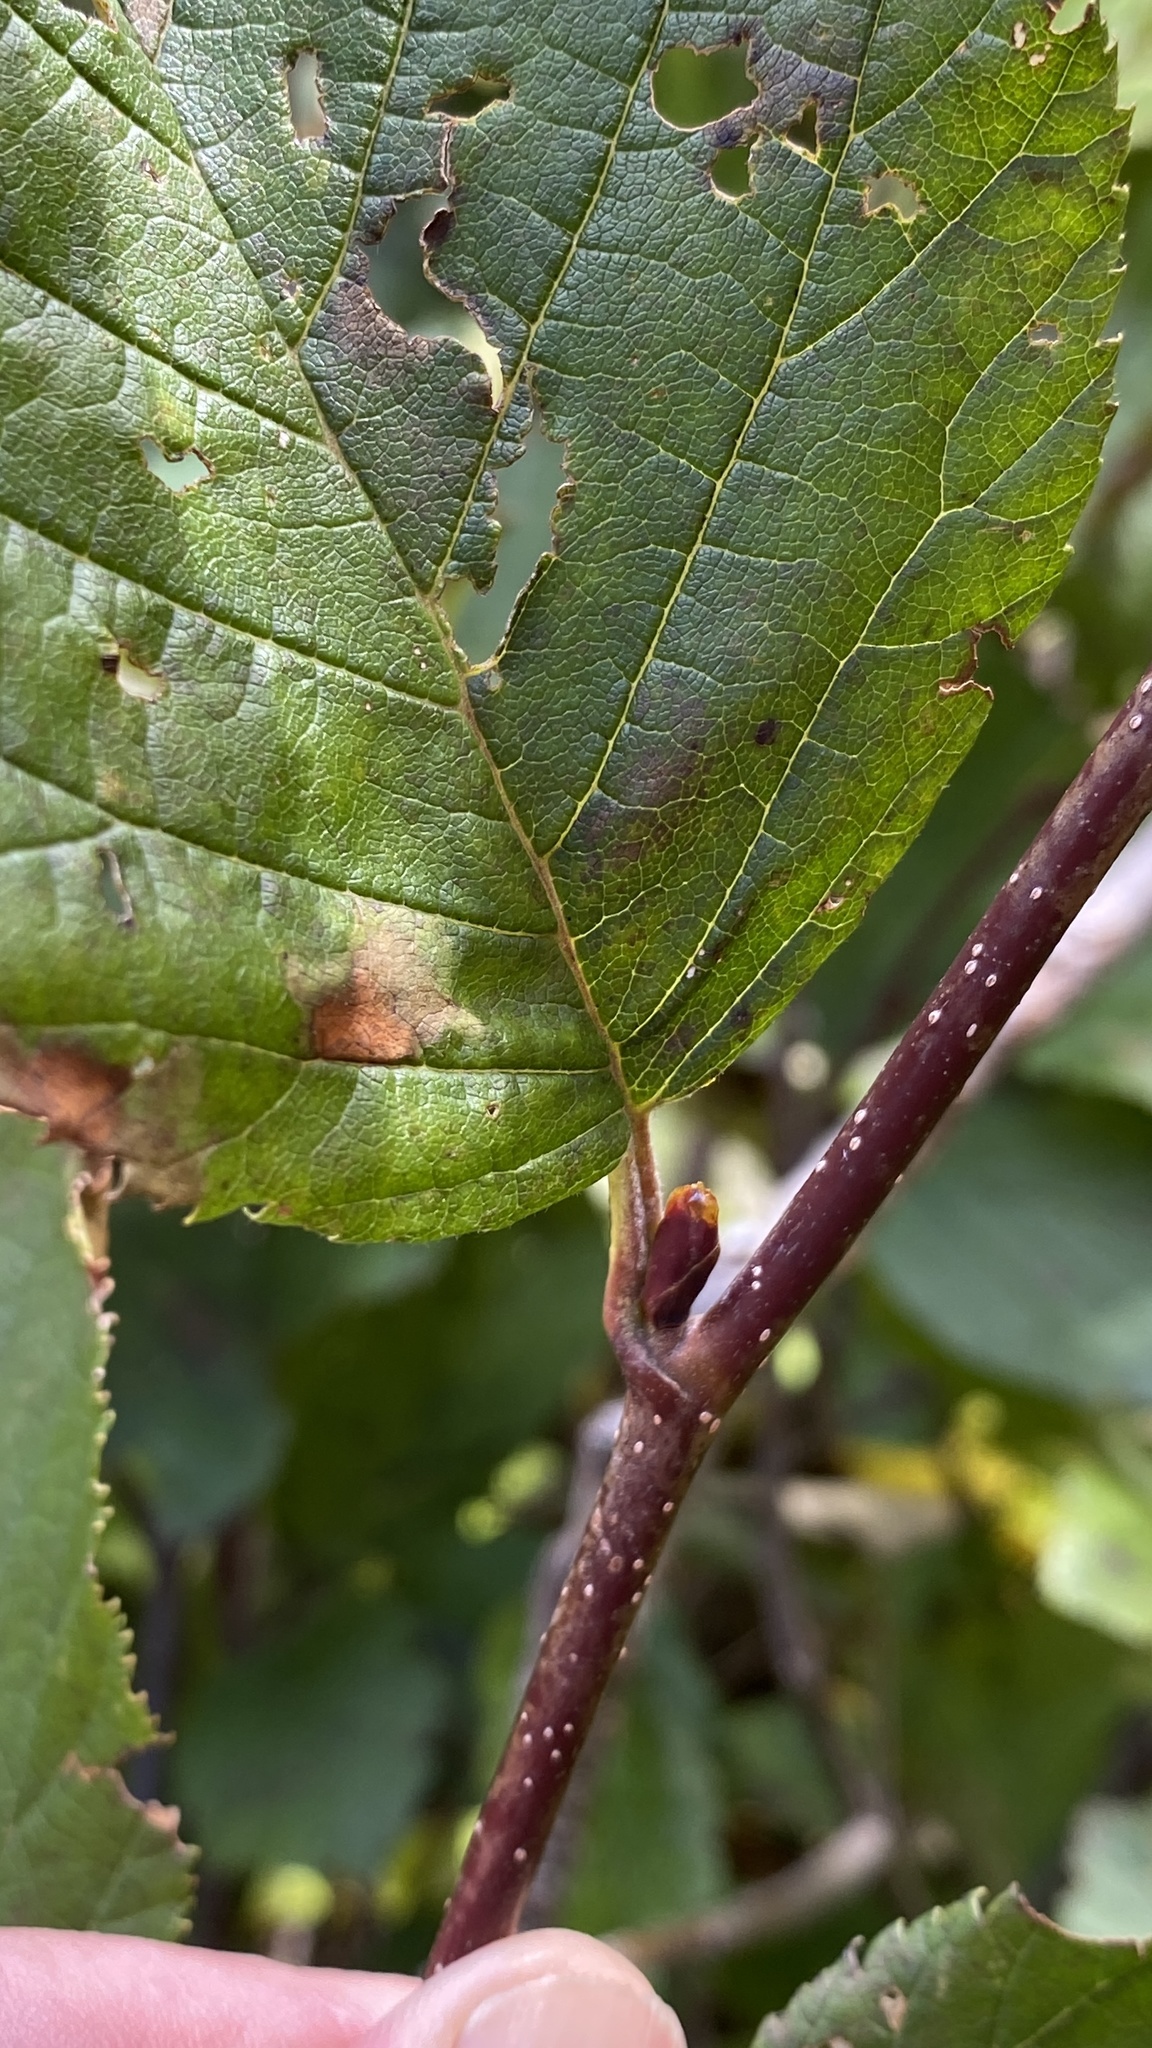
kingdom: Plantae
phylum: Tracheophyta
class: Magnoliopsida
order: Fagales
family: Betulaceae
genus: Alnus
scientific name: Alnus alnobetula
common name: Green alder
